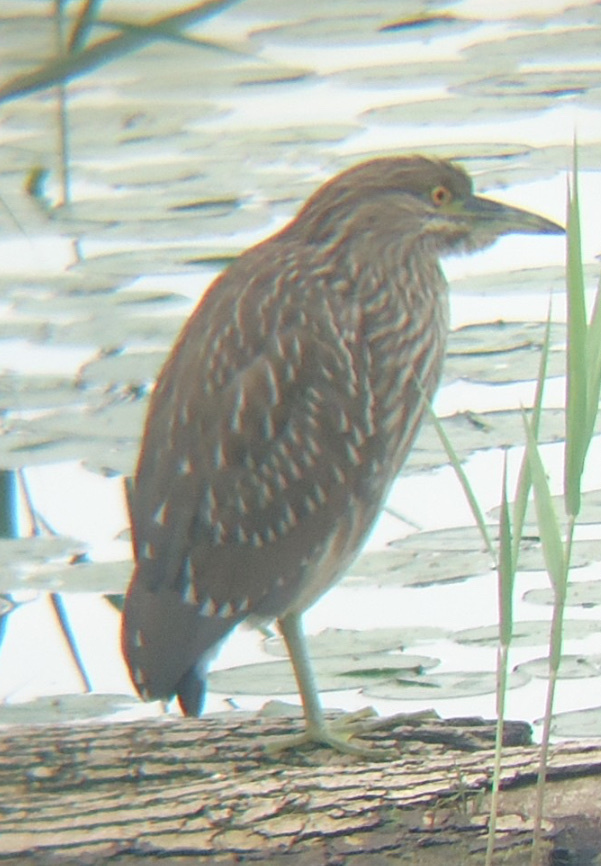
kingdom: Animalia
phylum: Chordata
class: Aves
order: Pelecaniformes
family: Ardeidae
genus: Nycticorax
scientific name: Nycticorax nycticorax
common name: Black-crowned night heron
